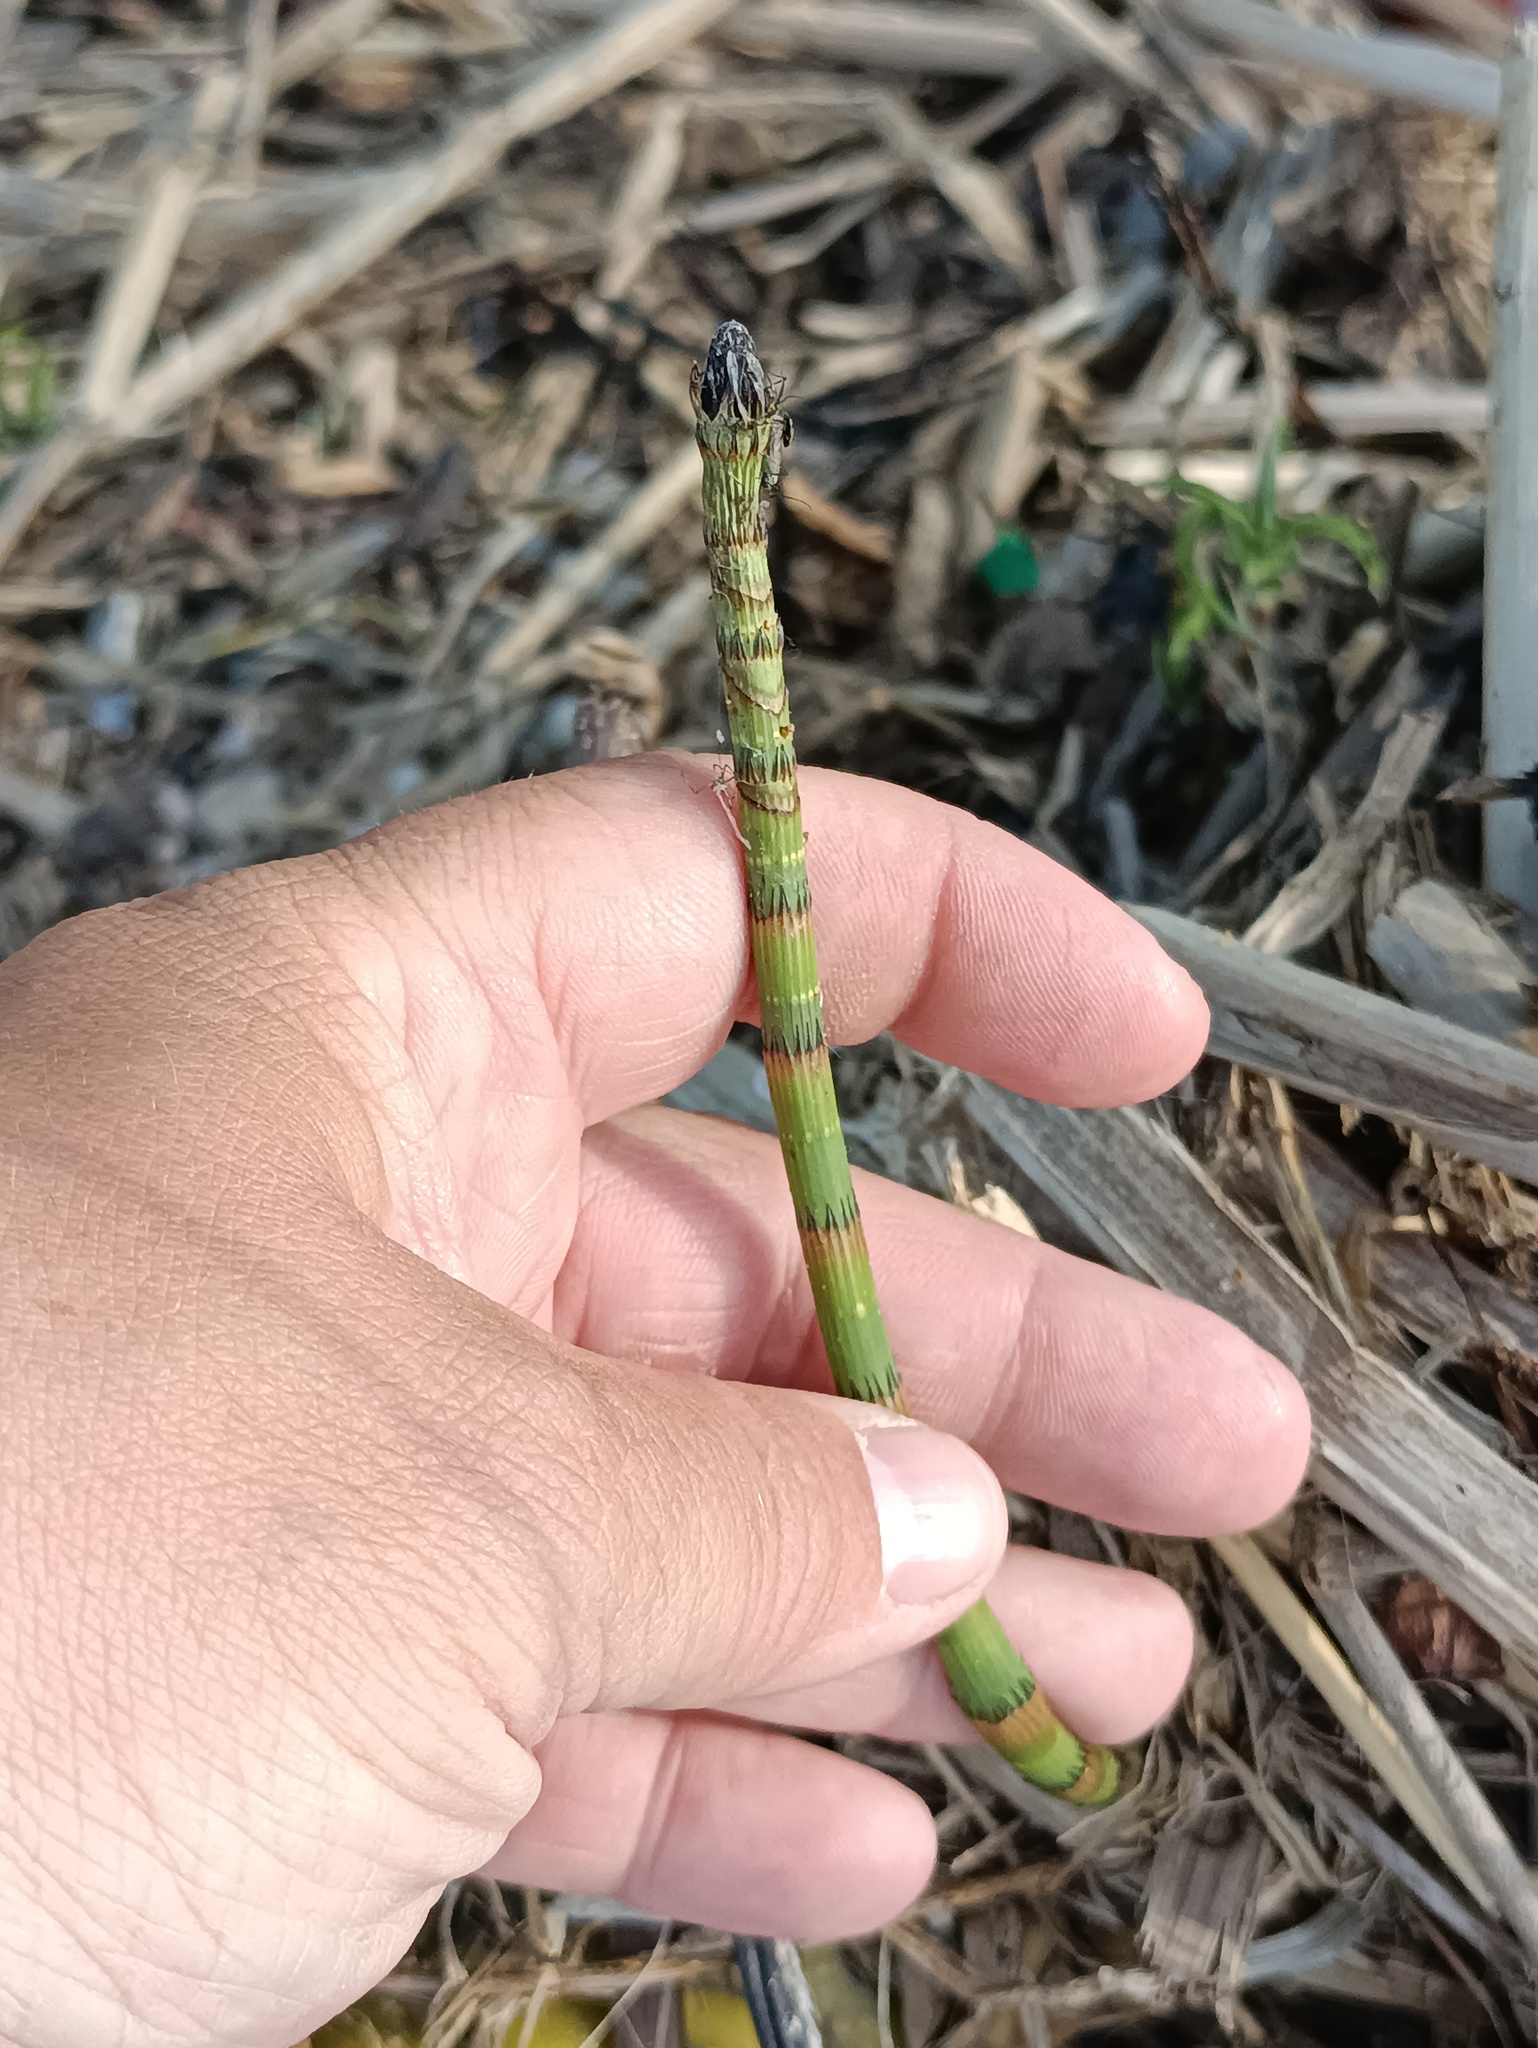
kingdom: Plantae
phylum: Tracheophyta
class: Polypodiopsida
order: Equisetales
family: Equisetaceae
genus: Equisetum
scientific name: Equisetum fluviatile
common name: Water horsetail
